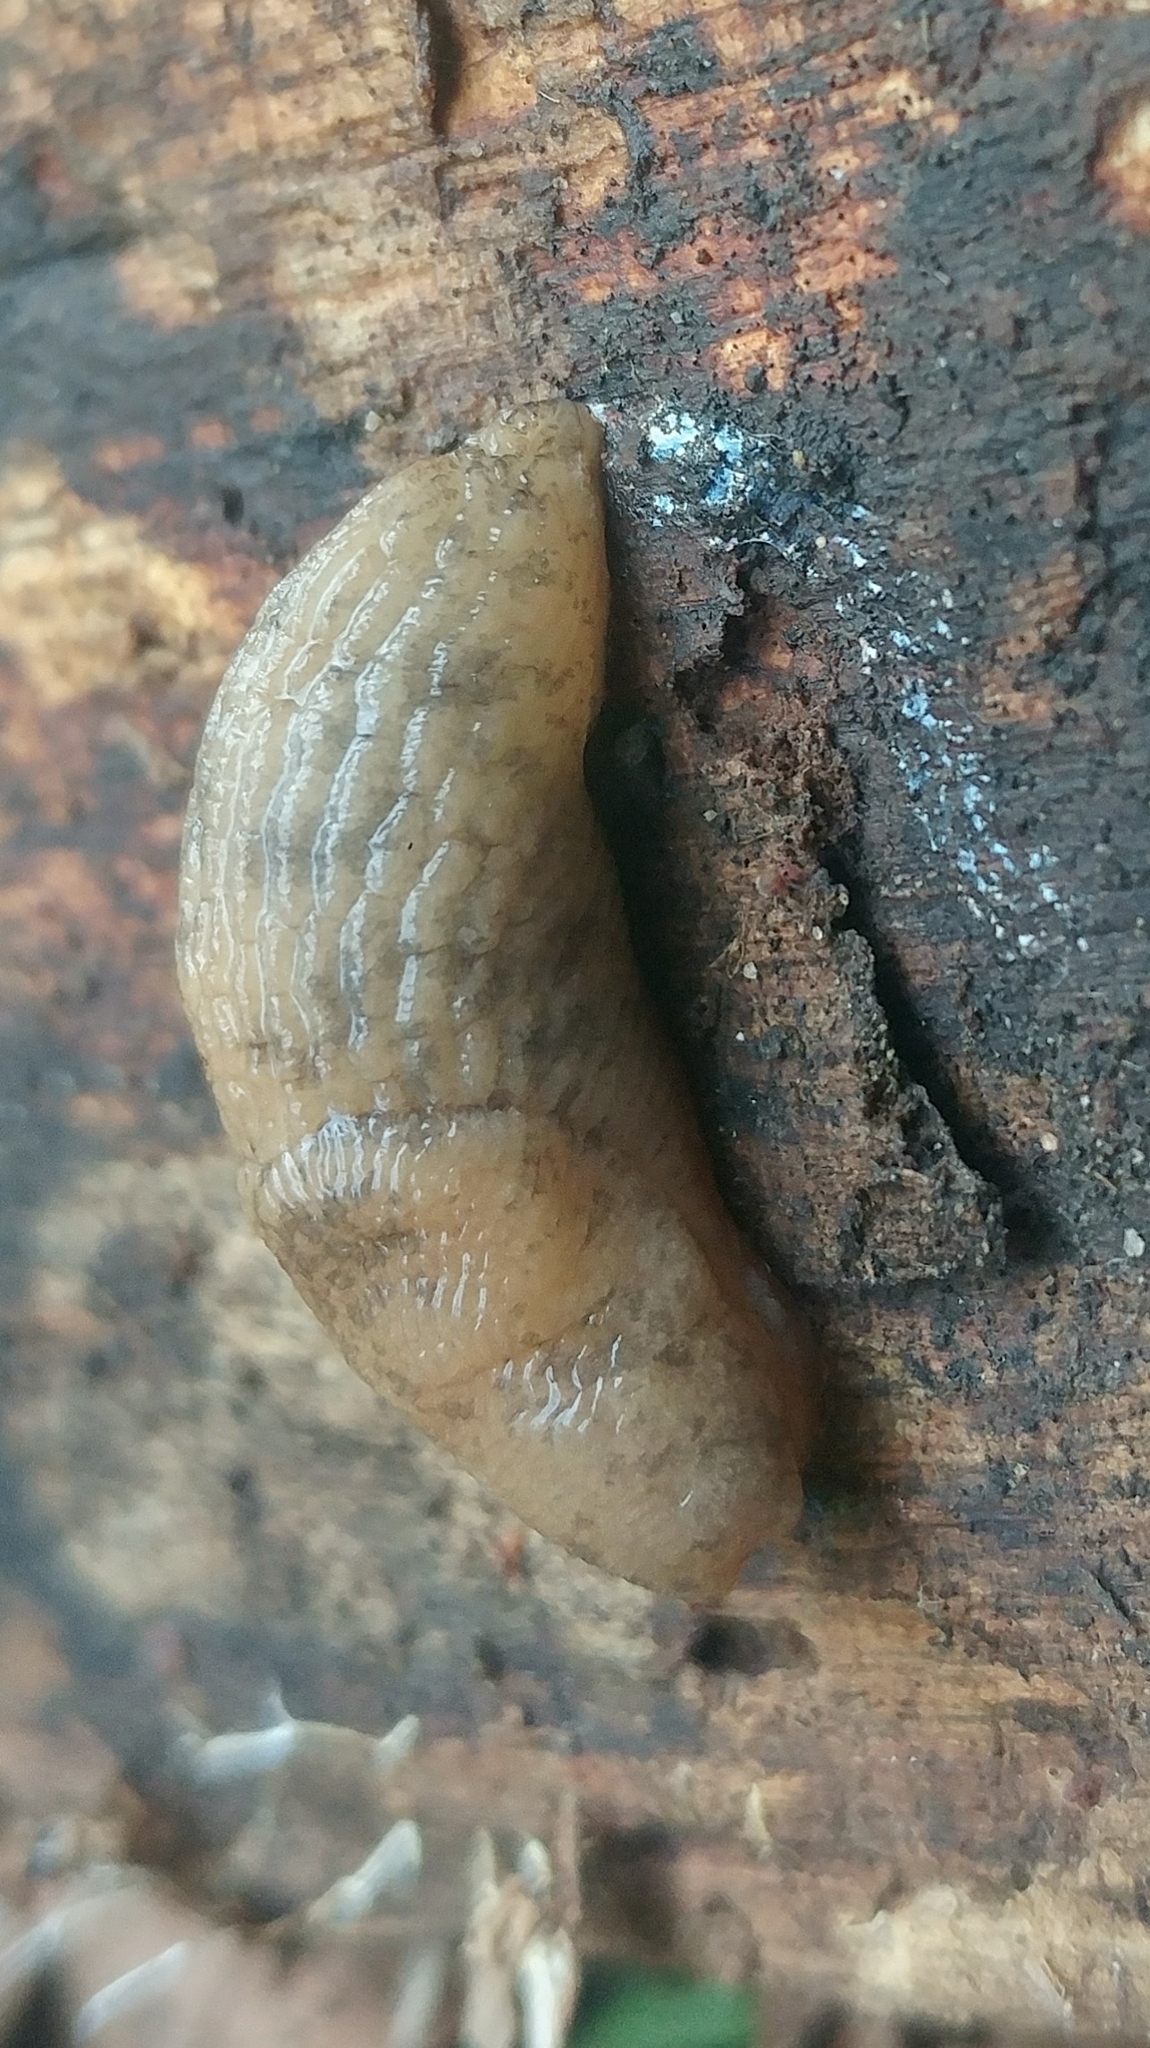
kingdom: Animalia
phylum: Mollusca
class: Gastropoda
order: Stylommatophora
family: Agriolimacidae
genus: Deroceras
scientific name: Deroceras reticulatum
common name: Gray field slug
